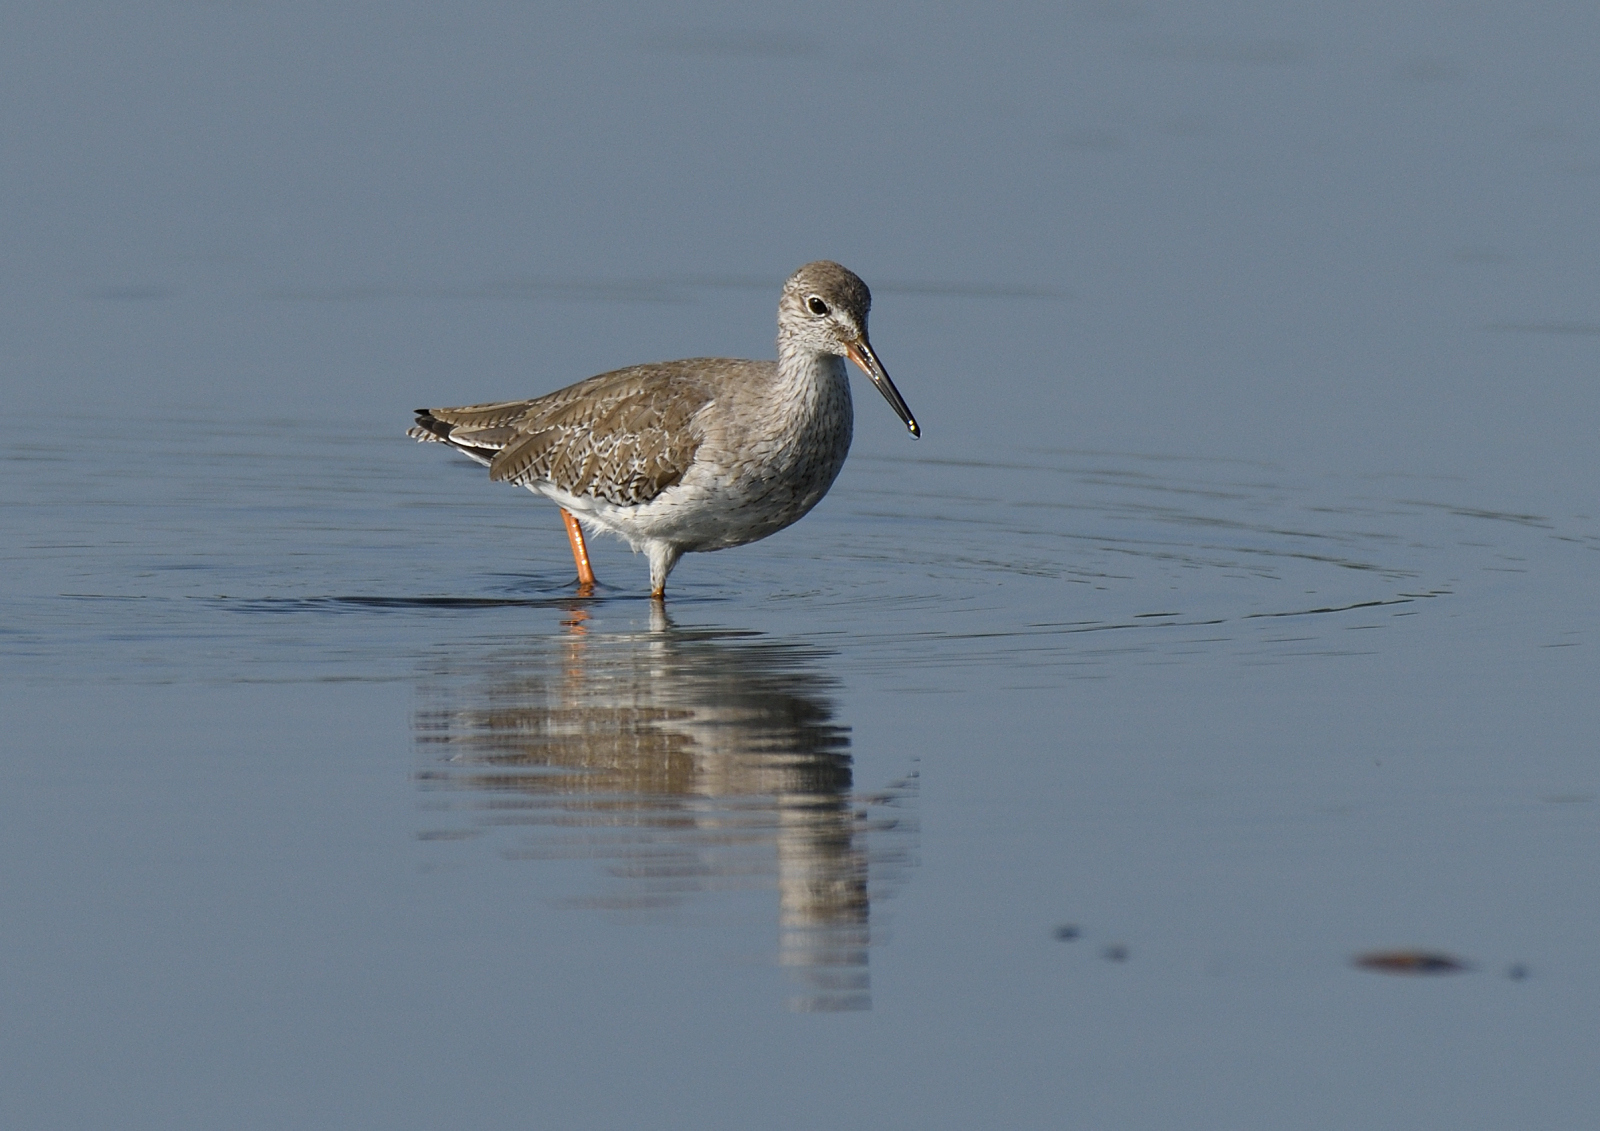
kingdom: Animalia
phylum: Chordata
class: Aves
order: Charadriiformes
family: Scolopacidae
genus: Tringa
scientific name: Tringa totanus
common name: Common redshank
